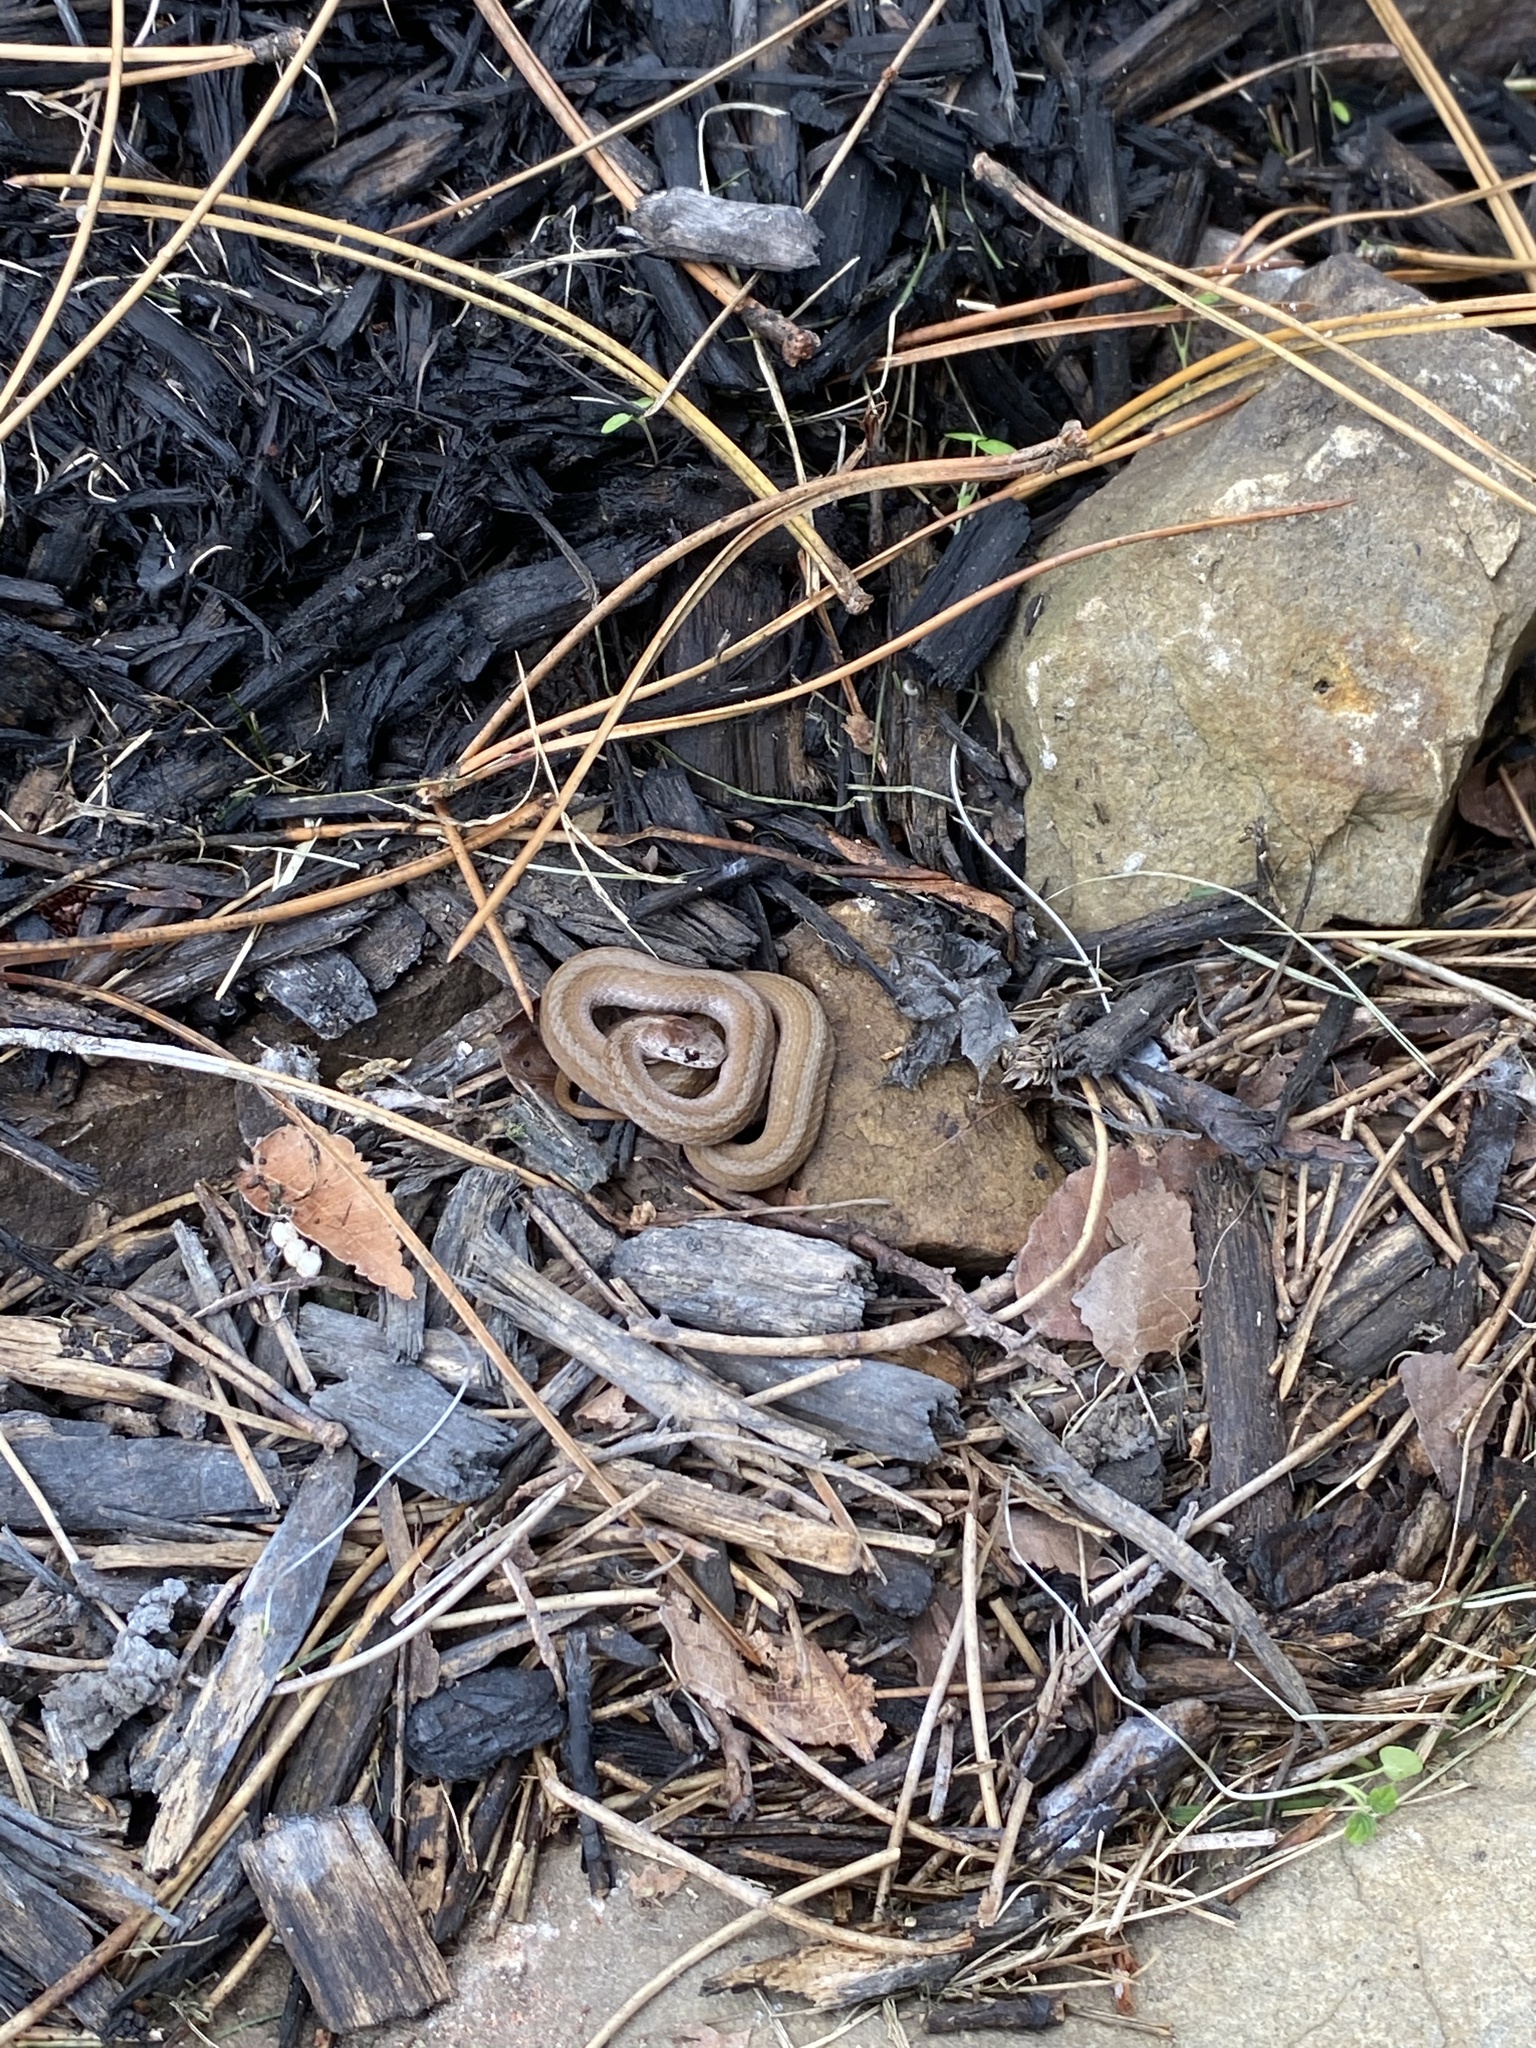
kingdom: Animalia
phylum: Chordata
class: Squamata
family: Colubridae
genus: Storeria
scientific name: Storeria dekayi
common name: (dekay’s) brown snake
